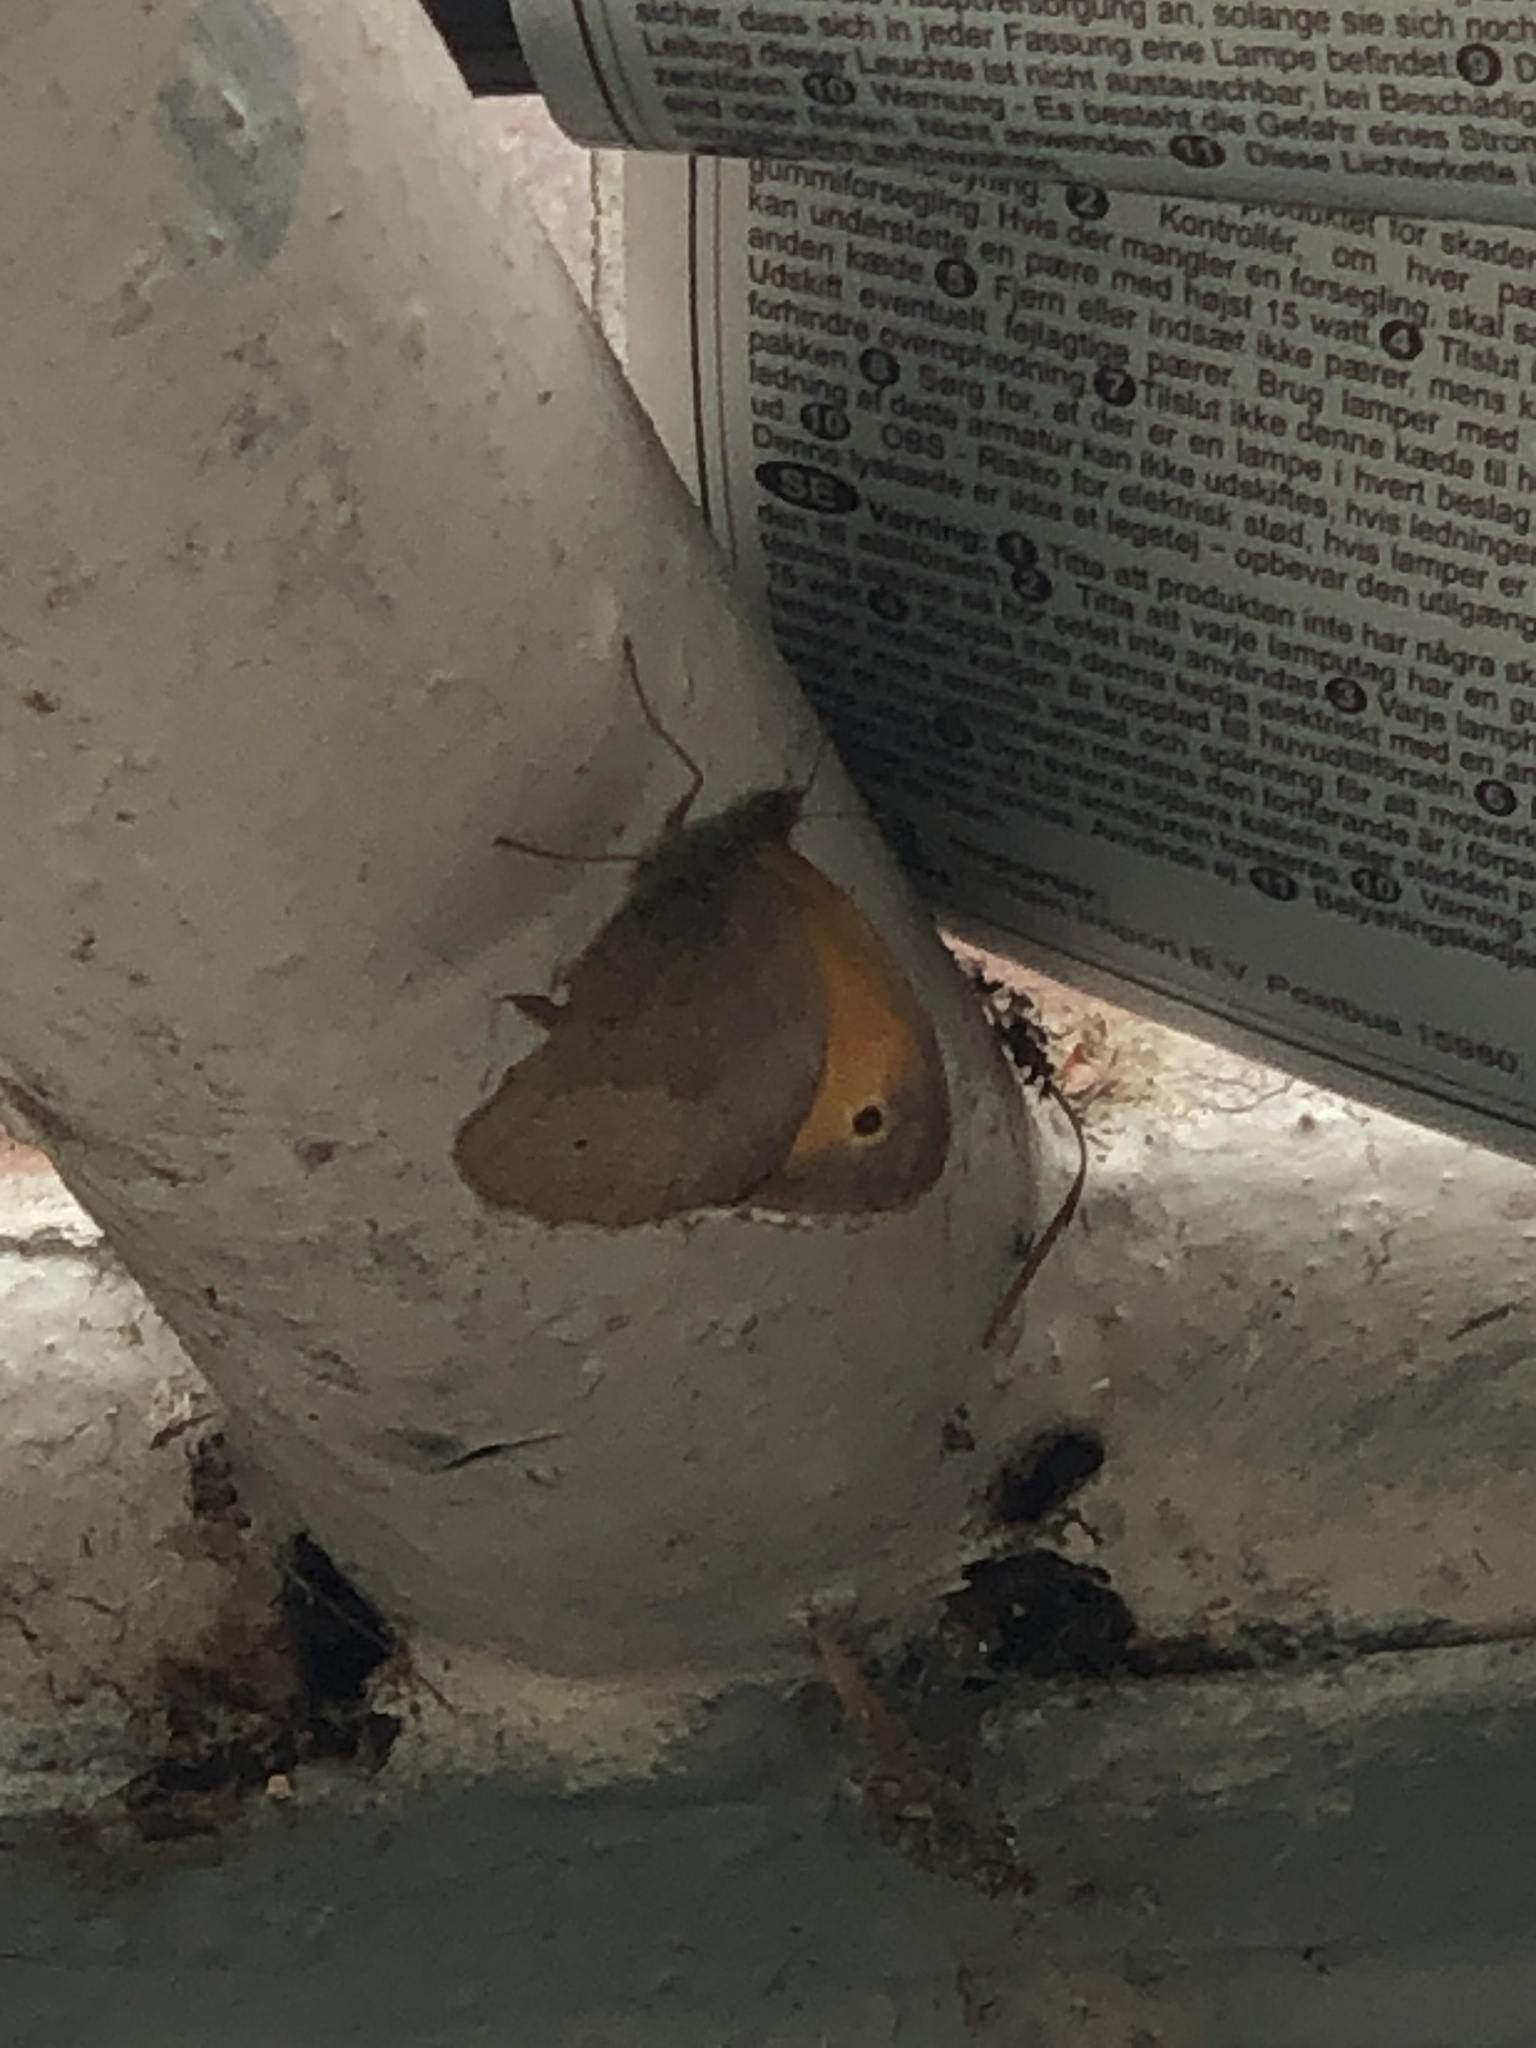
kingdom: Animalia
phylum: Arthropoda
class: Insecta
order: Lepidoptera
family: Nymphalidae
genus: Maniola
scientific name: Maniola jurtina
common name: Meadow brown
